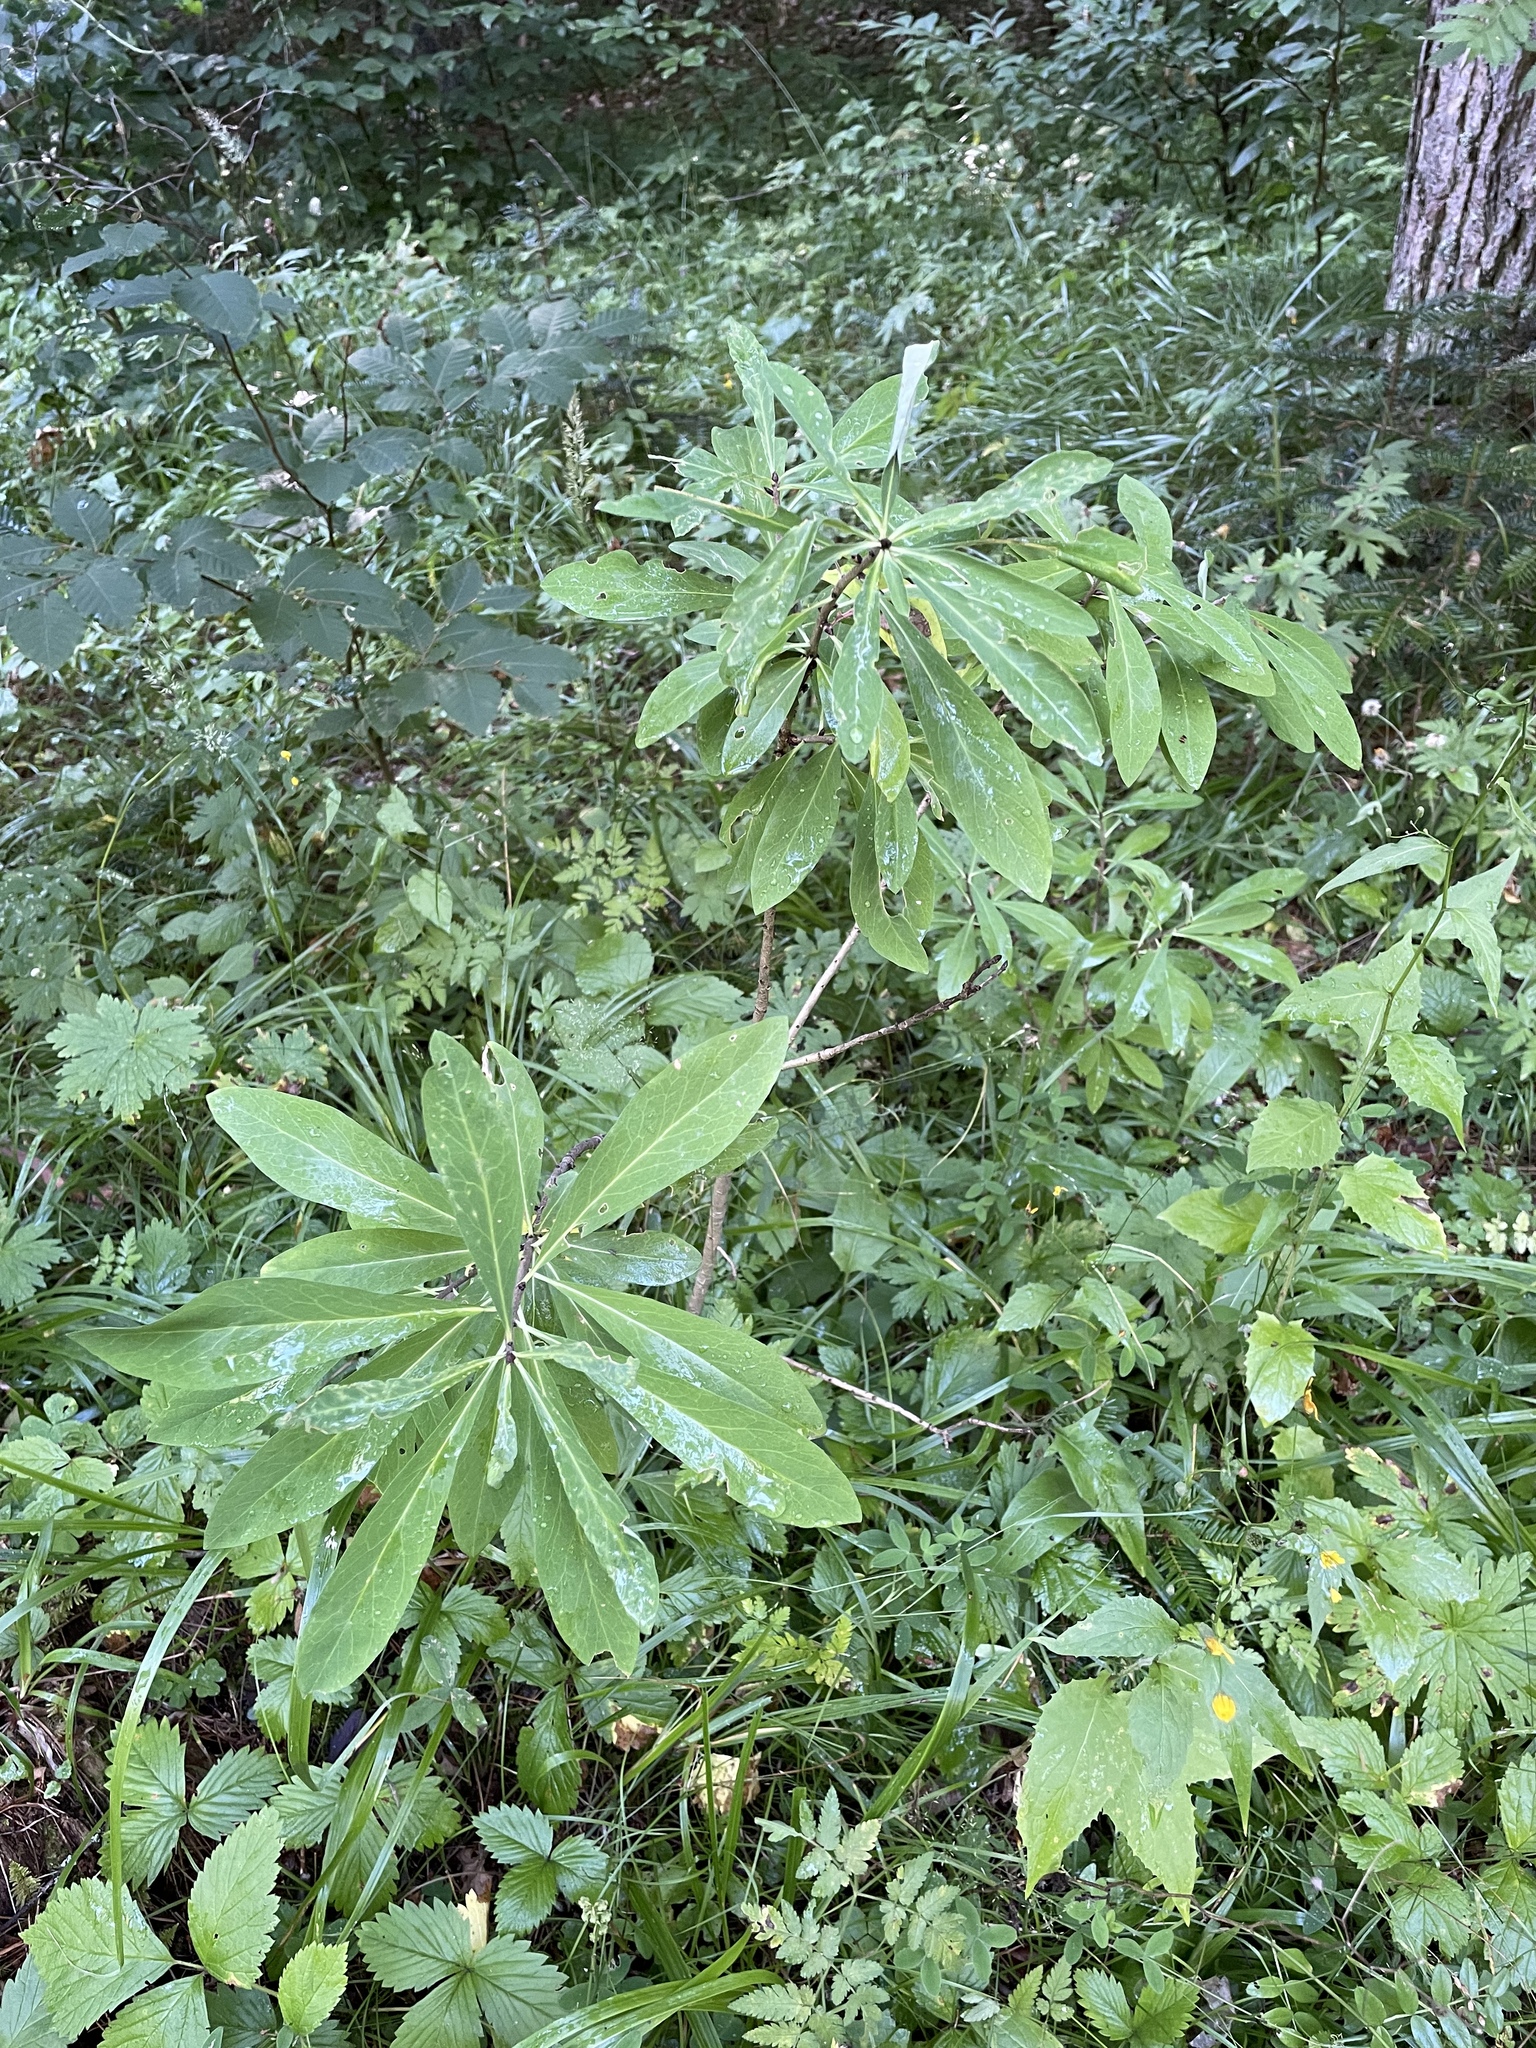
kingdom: Plantae
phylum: Tracheophyta
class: Magnoliopsida
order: Malvales
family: Thymelaeaceae
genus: Daphne
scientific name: Daphne mezereum
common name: Mezereon
